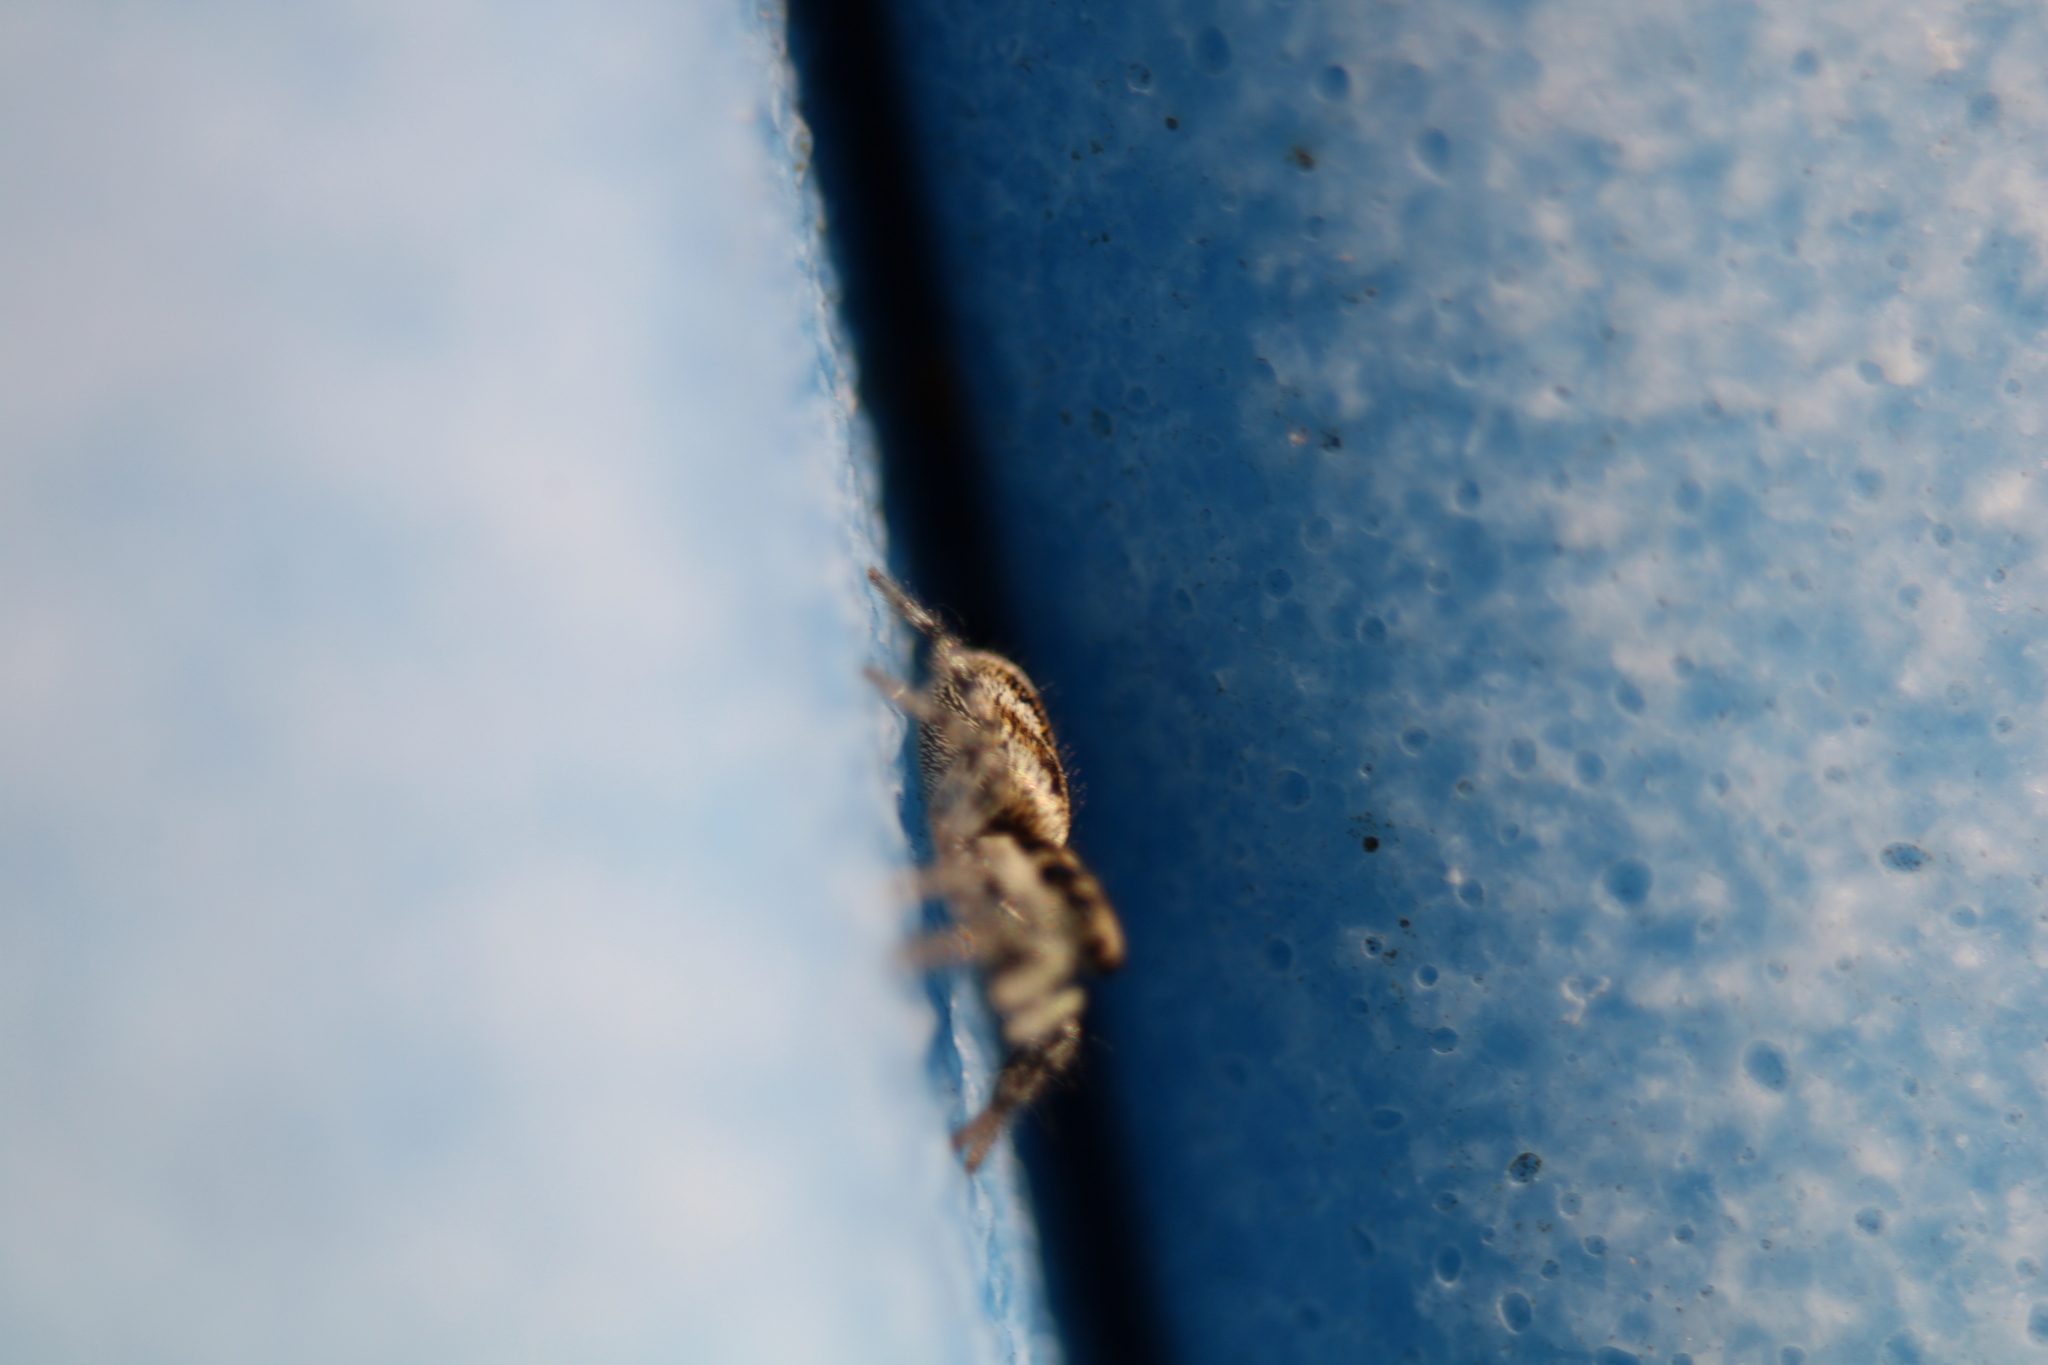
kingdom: Animalia
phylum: Arthropoda
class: Arachnida
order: Araneae
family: Salticidae
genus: Salticus
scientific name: Salticus scenicus
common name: Zebra jumper
